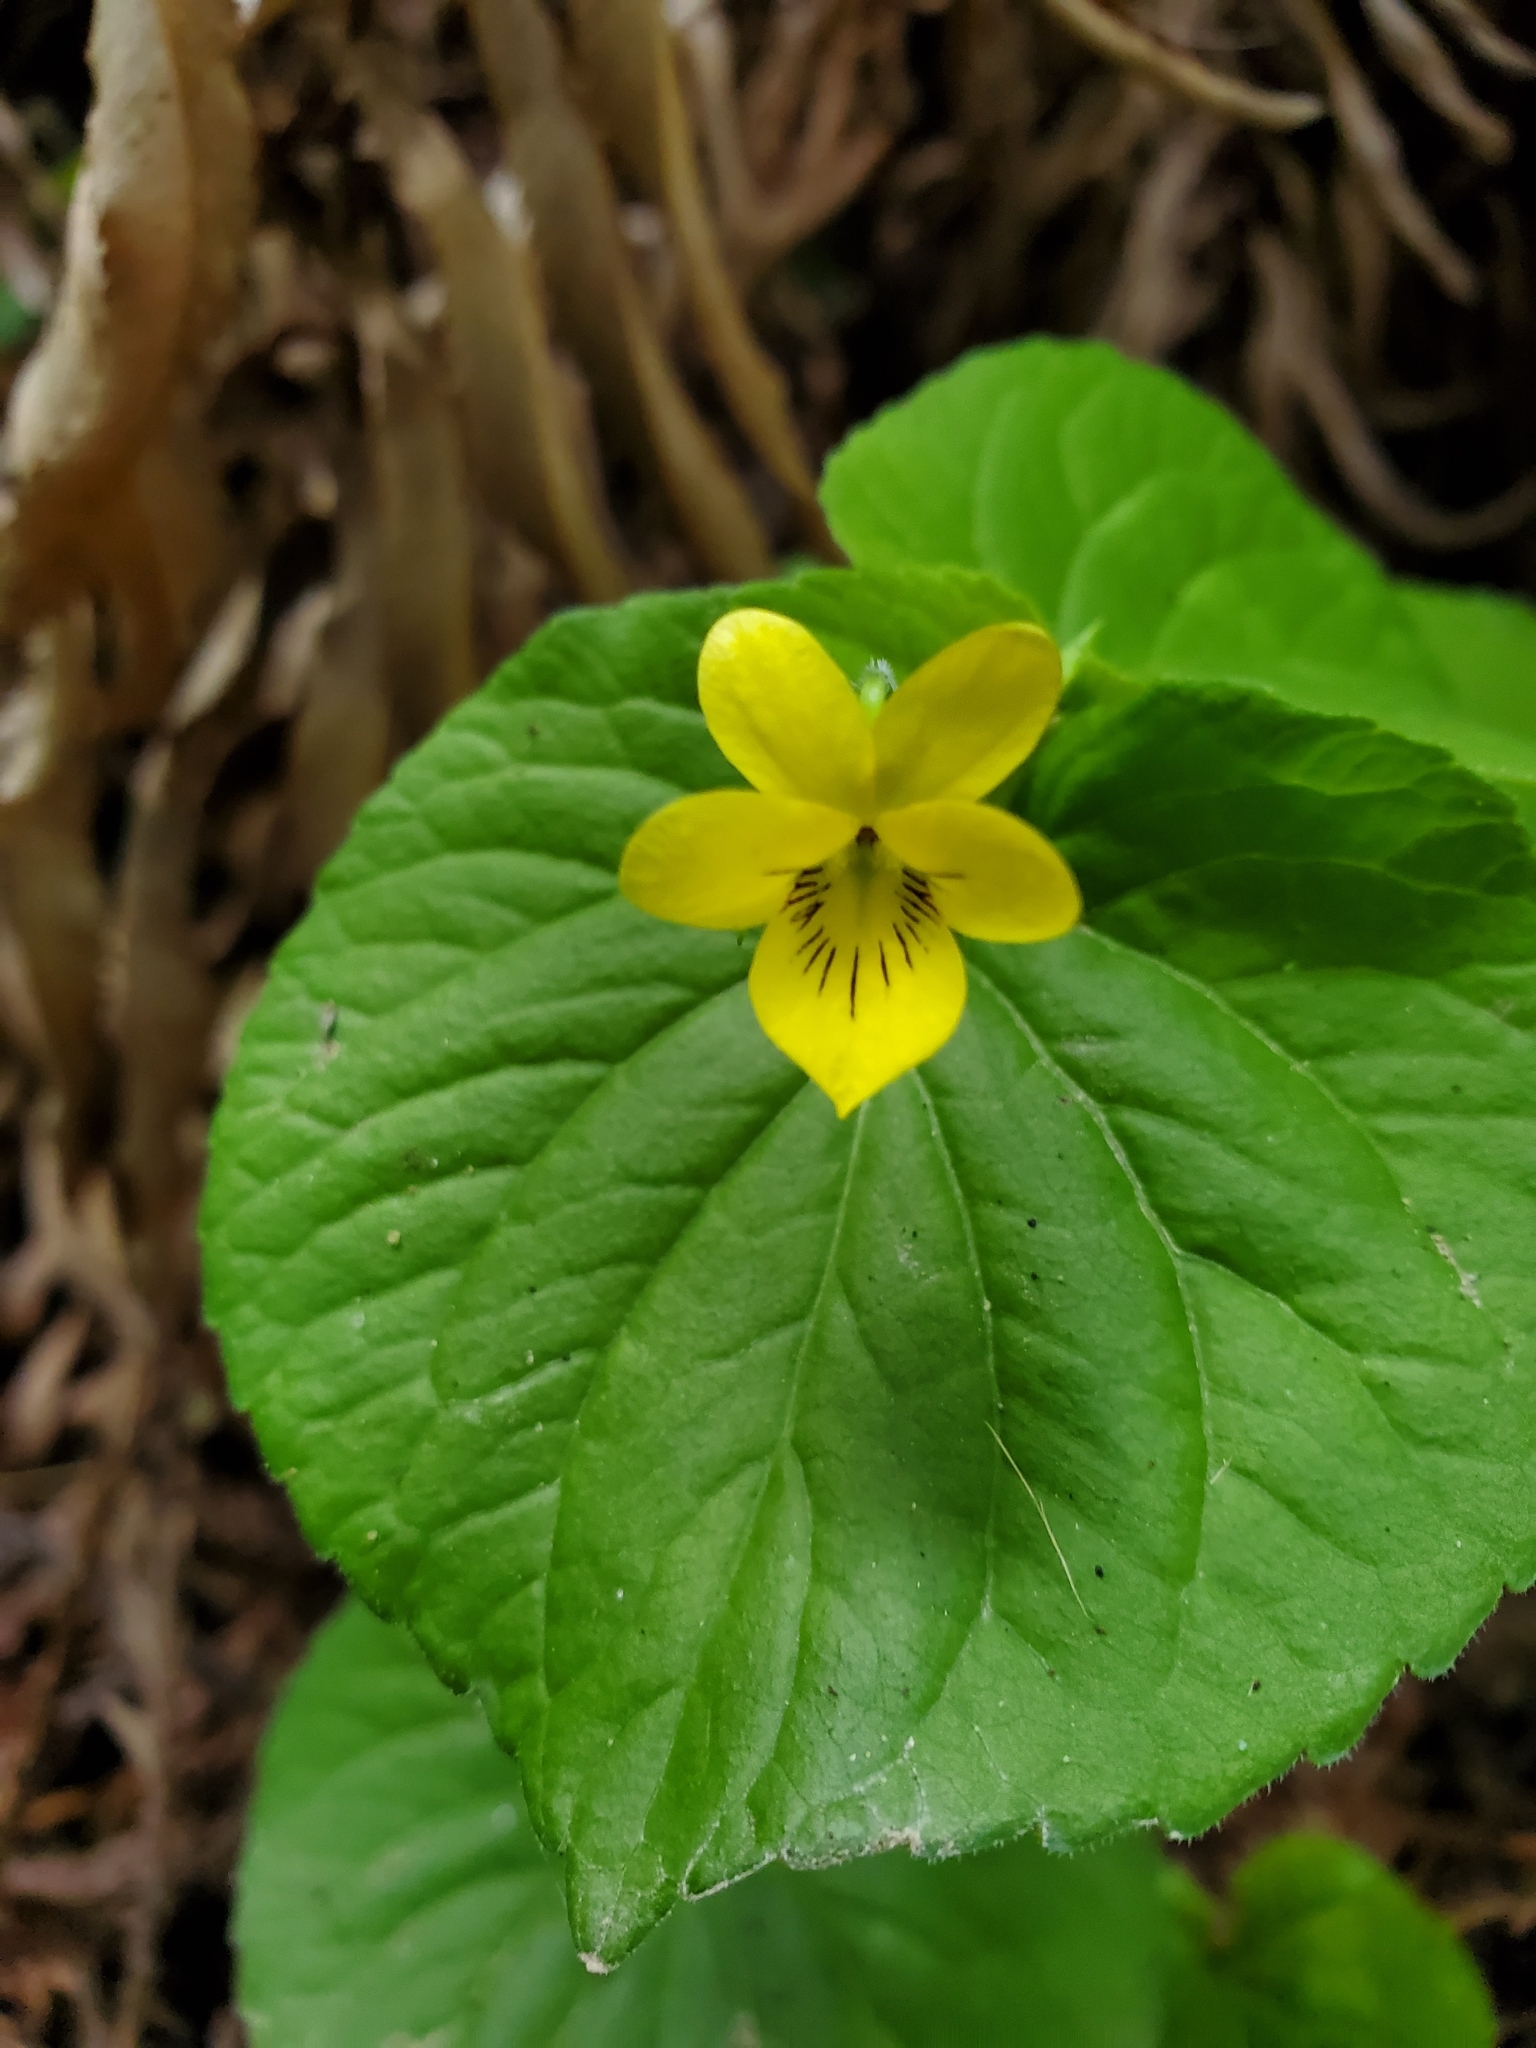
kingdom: Plantae
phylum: Tracheophyta
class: Magnoliopsida
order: Malpighiales
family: Violaceae
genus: Viola
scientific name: Viola glabella
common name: Stream violet
